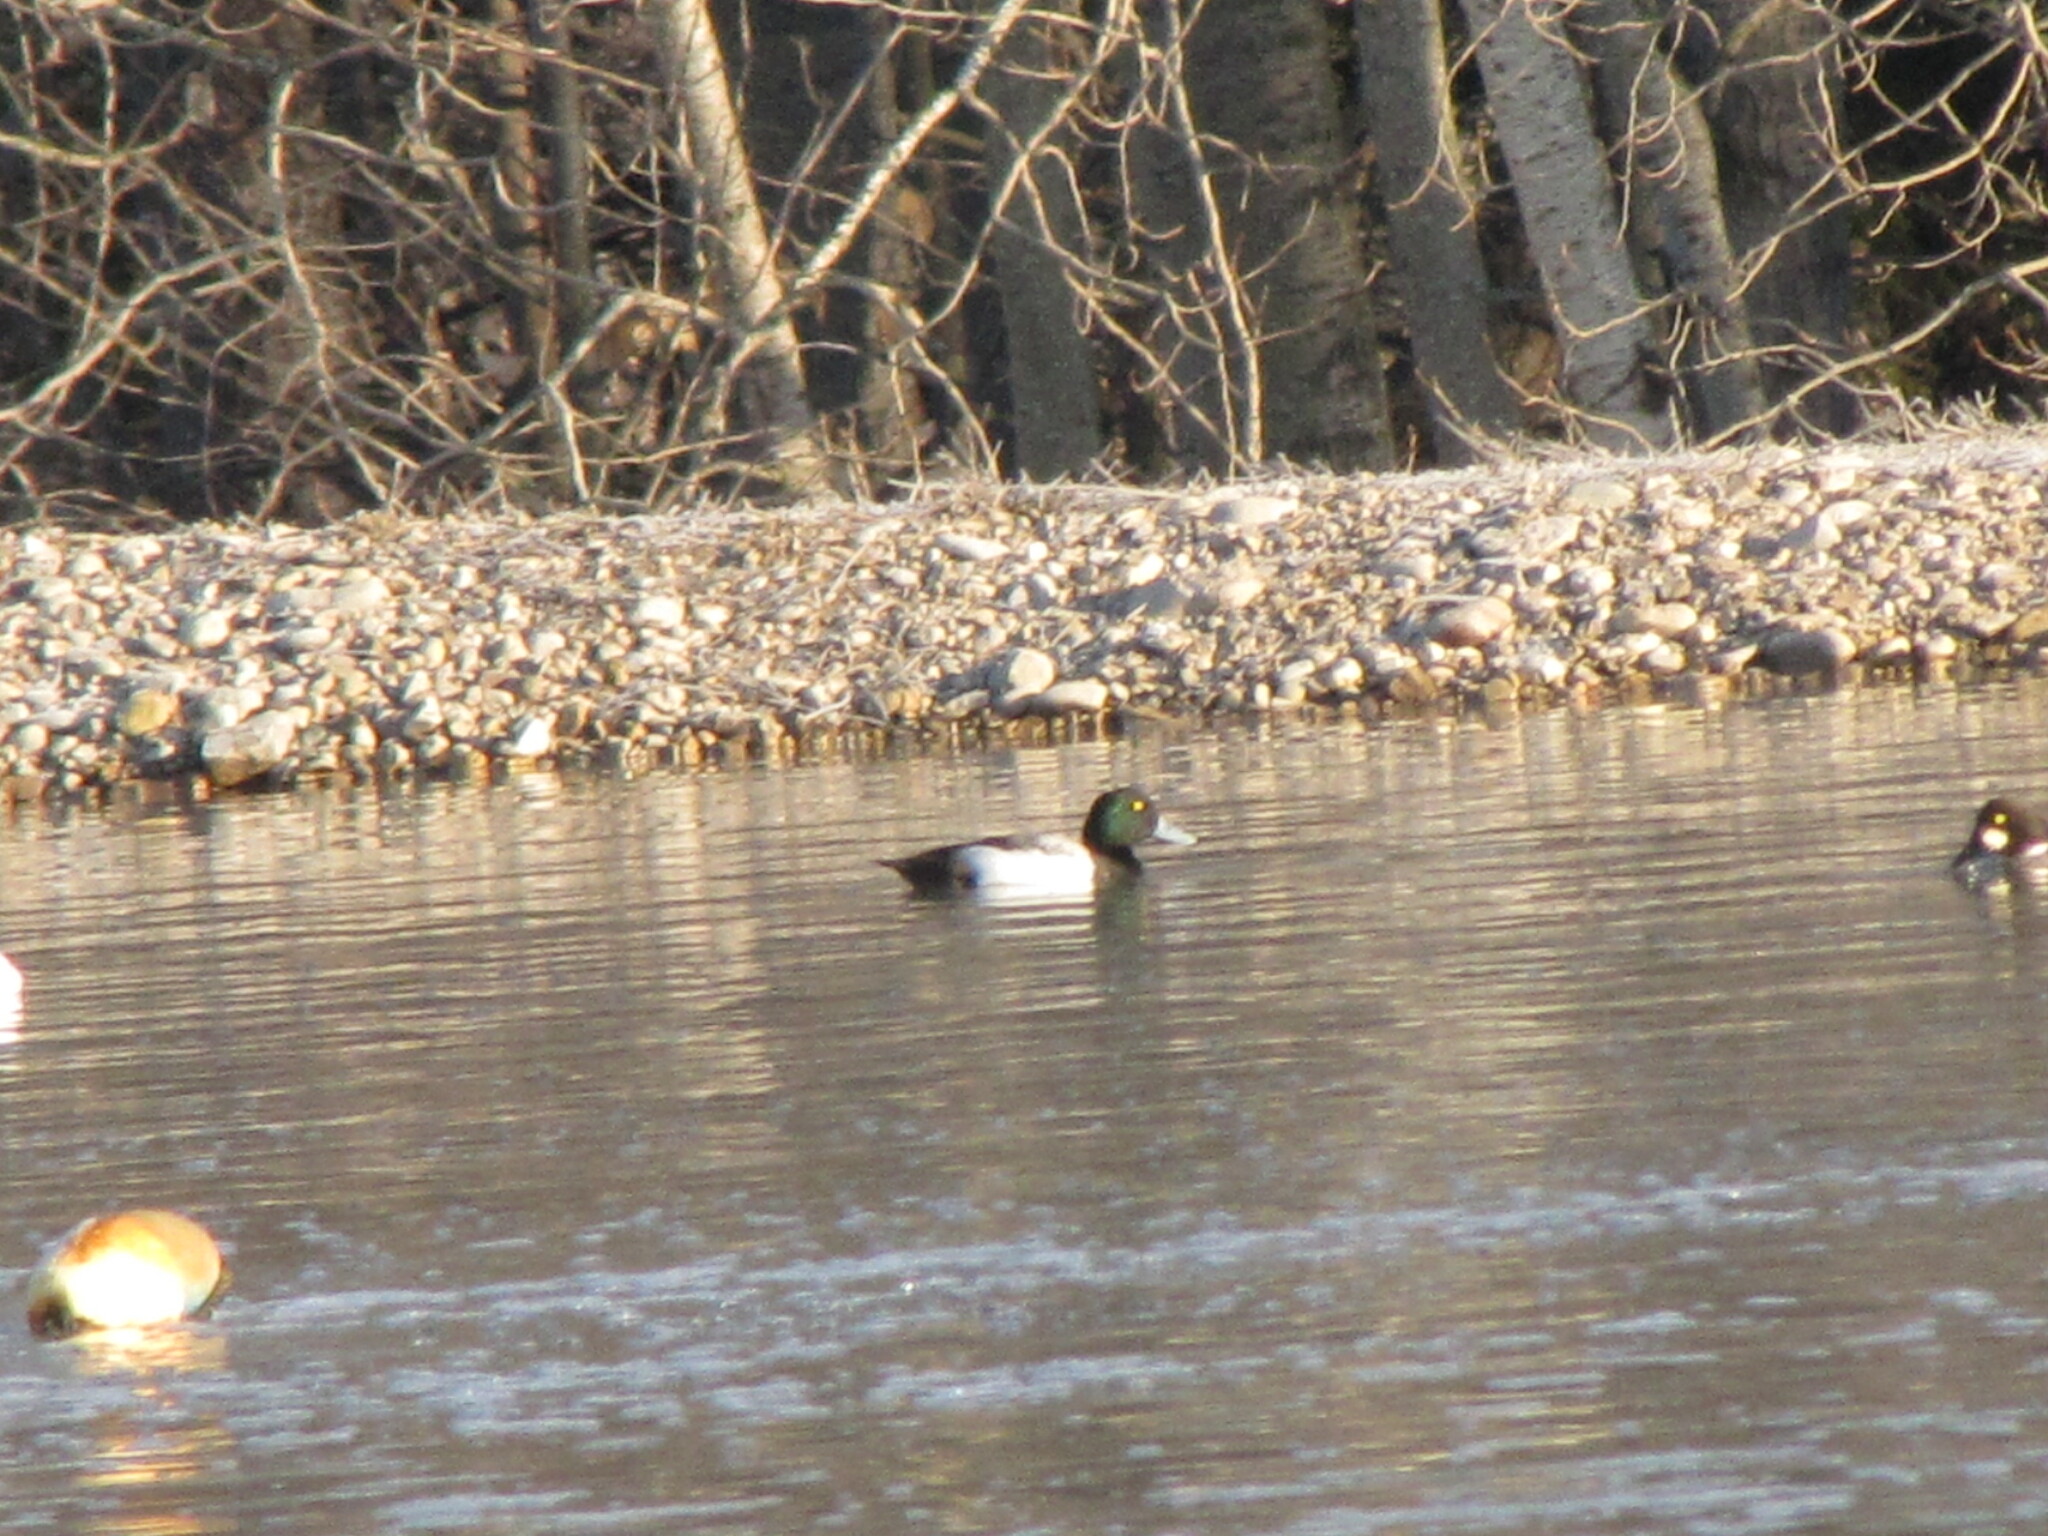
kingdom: Animalia
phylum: Chordata
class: Aves
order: Anseriformes
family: Anatidae
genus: Aythya
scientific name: Aythya marila
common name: Greater scaup
